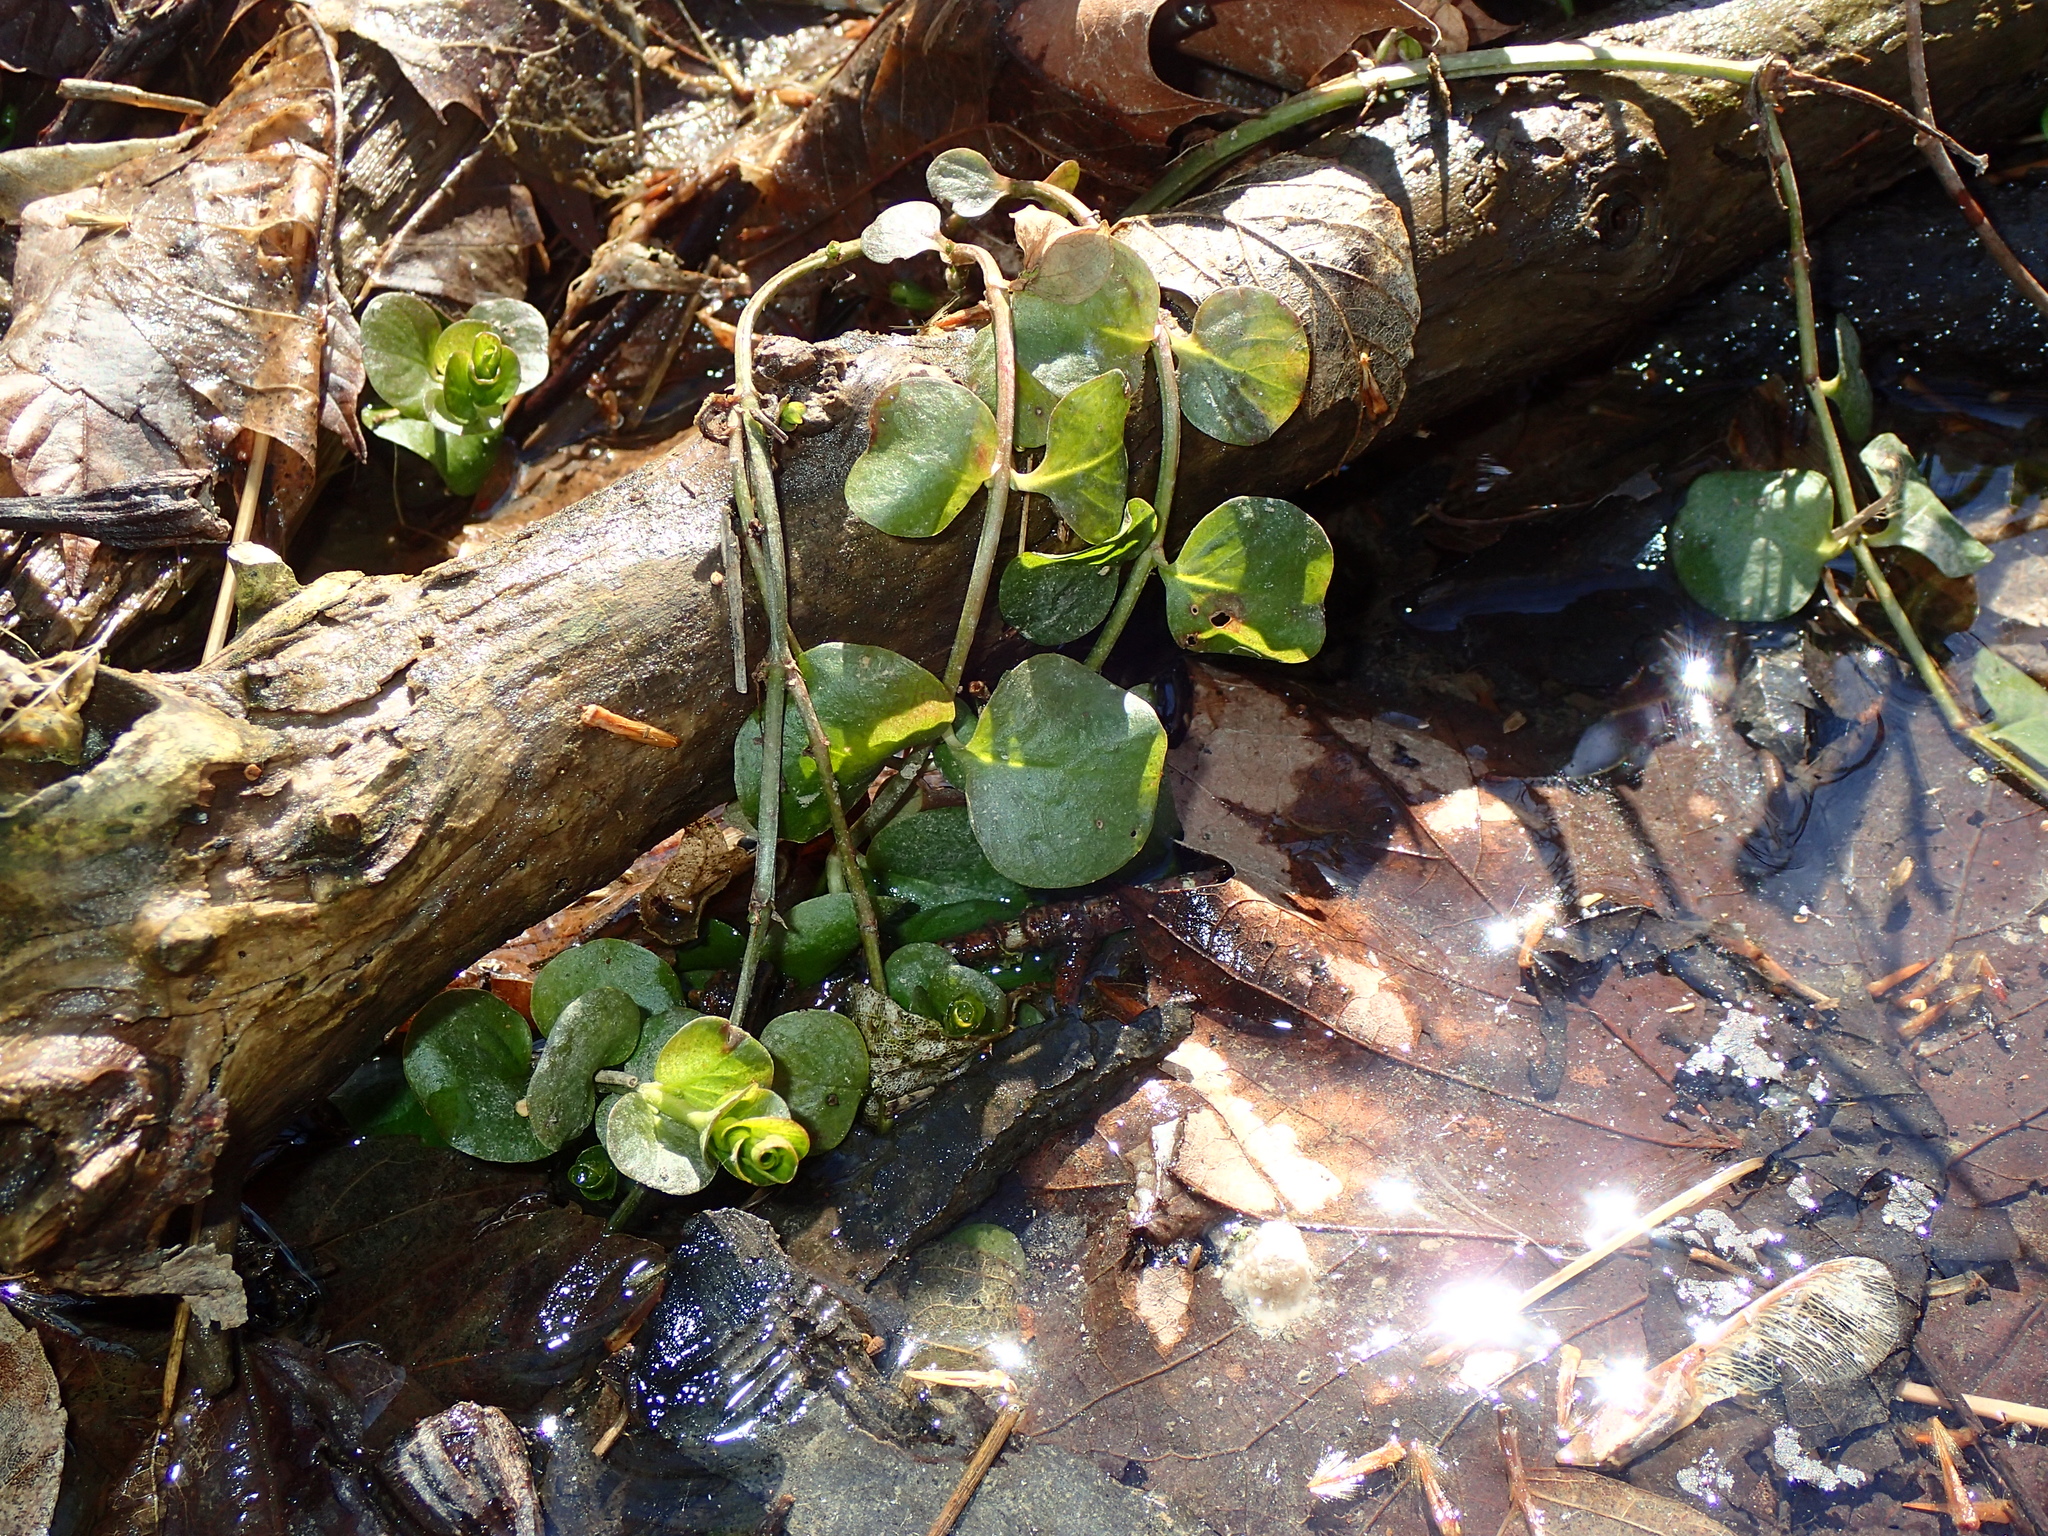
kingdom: Plantae
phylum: Tracheophyta
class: Magnoliopsida
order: Ericales
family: Primulaceae
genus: Lysimachia
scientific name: Lysimachia nummularia
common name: Moneywort
